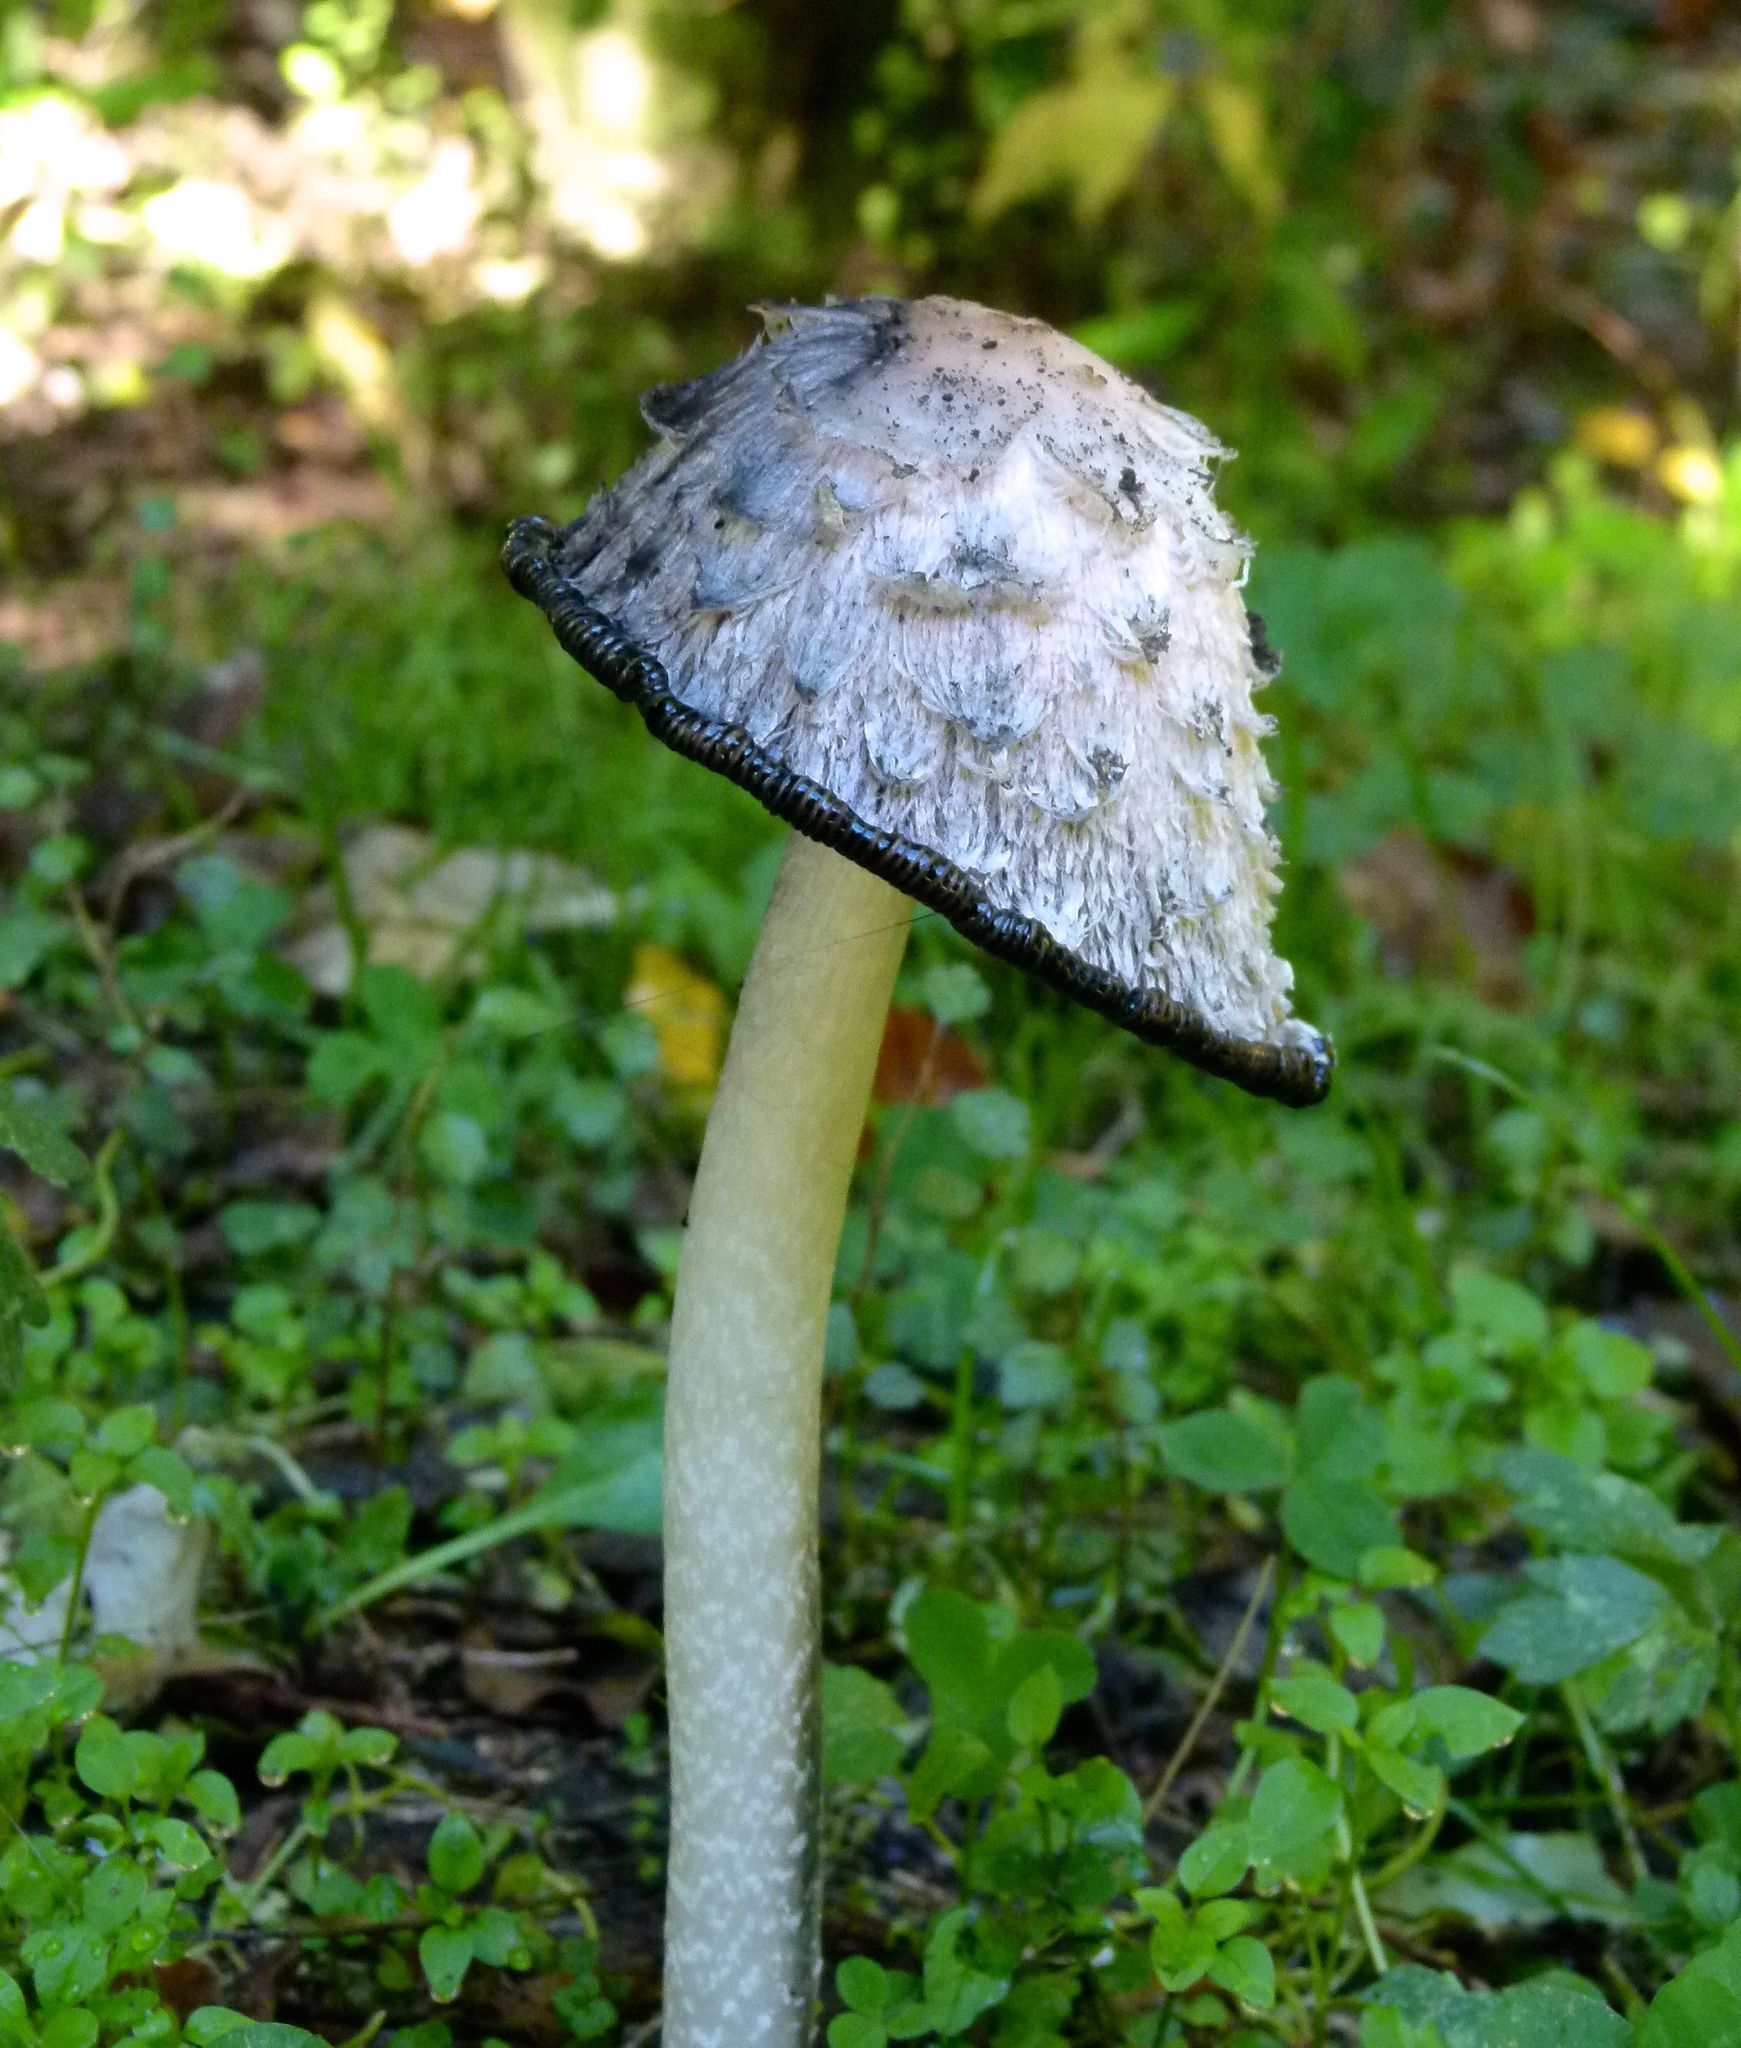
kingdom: Fungi
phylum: Basidiomycota
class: Agaricomycetes
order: Agaricales
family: Agaricaceae
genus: Coprinus
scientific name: Coprinus comatus
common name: Lawyer's wig
